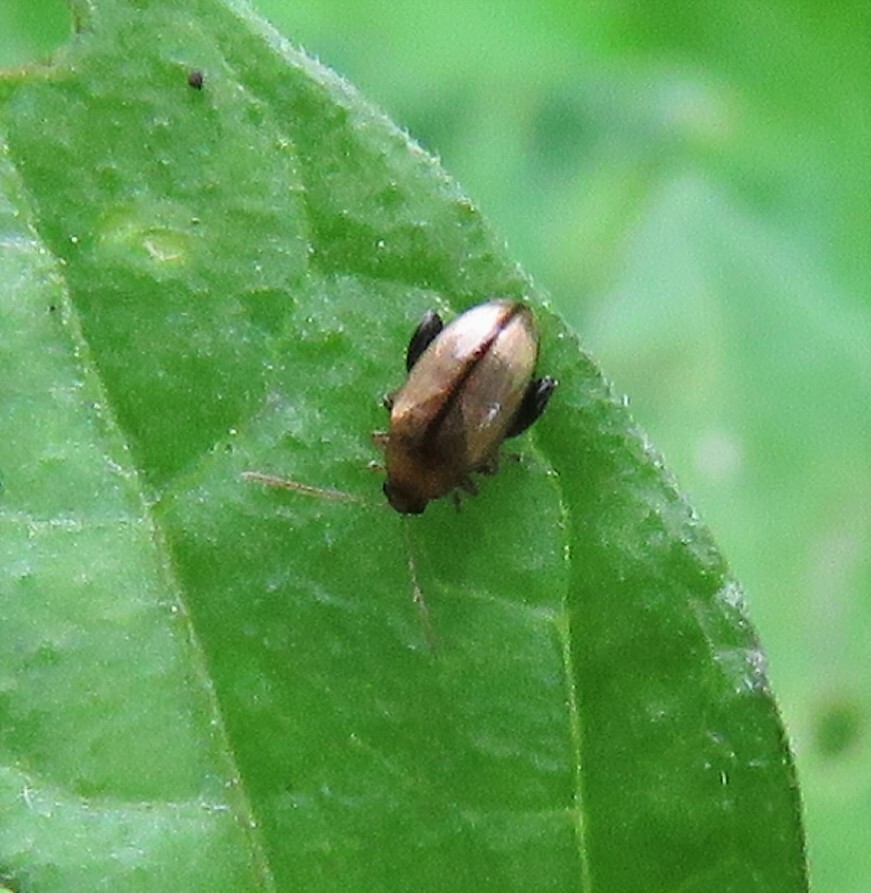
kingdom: Animalia
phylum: Arthropoda
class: Insecta
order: Coleoptera
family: Chrysomelidae
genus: Psylliodes
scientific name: Psylliodes affinis
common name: Potato flea beetle
